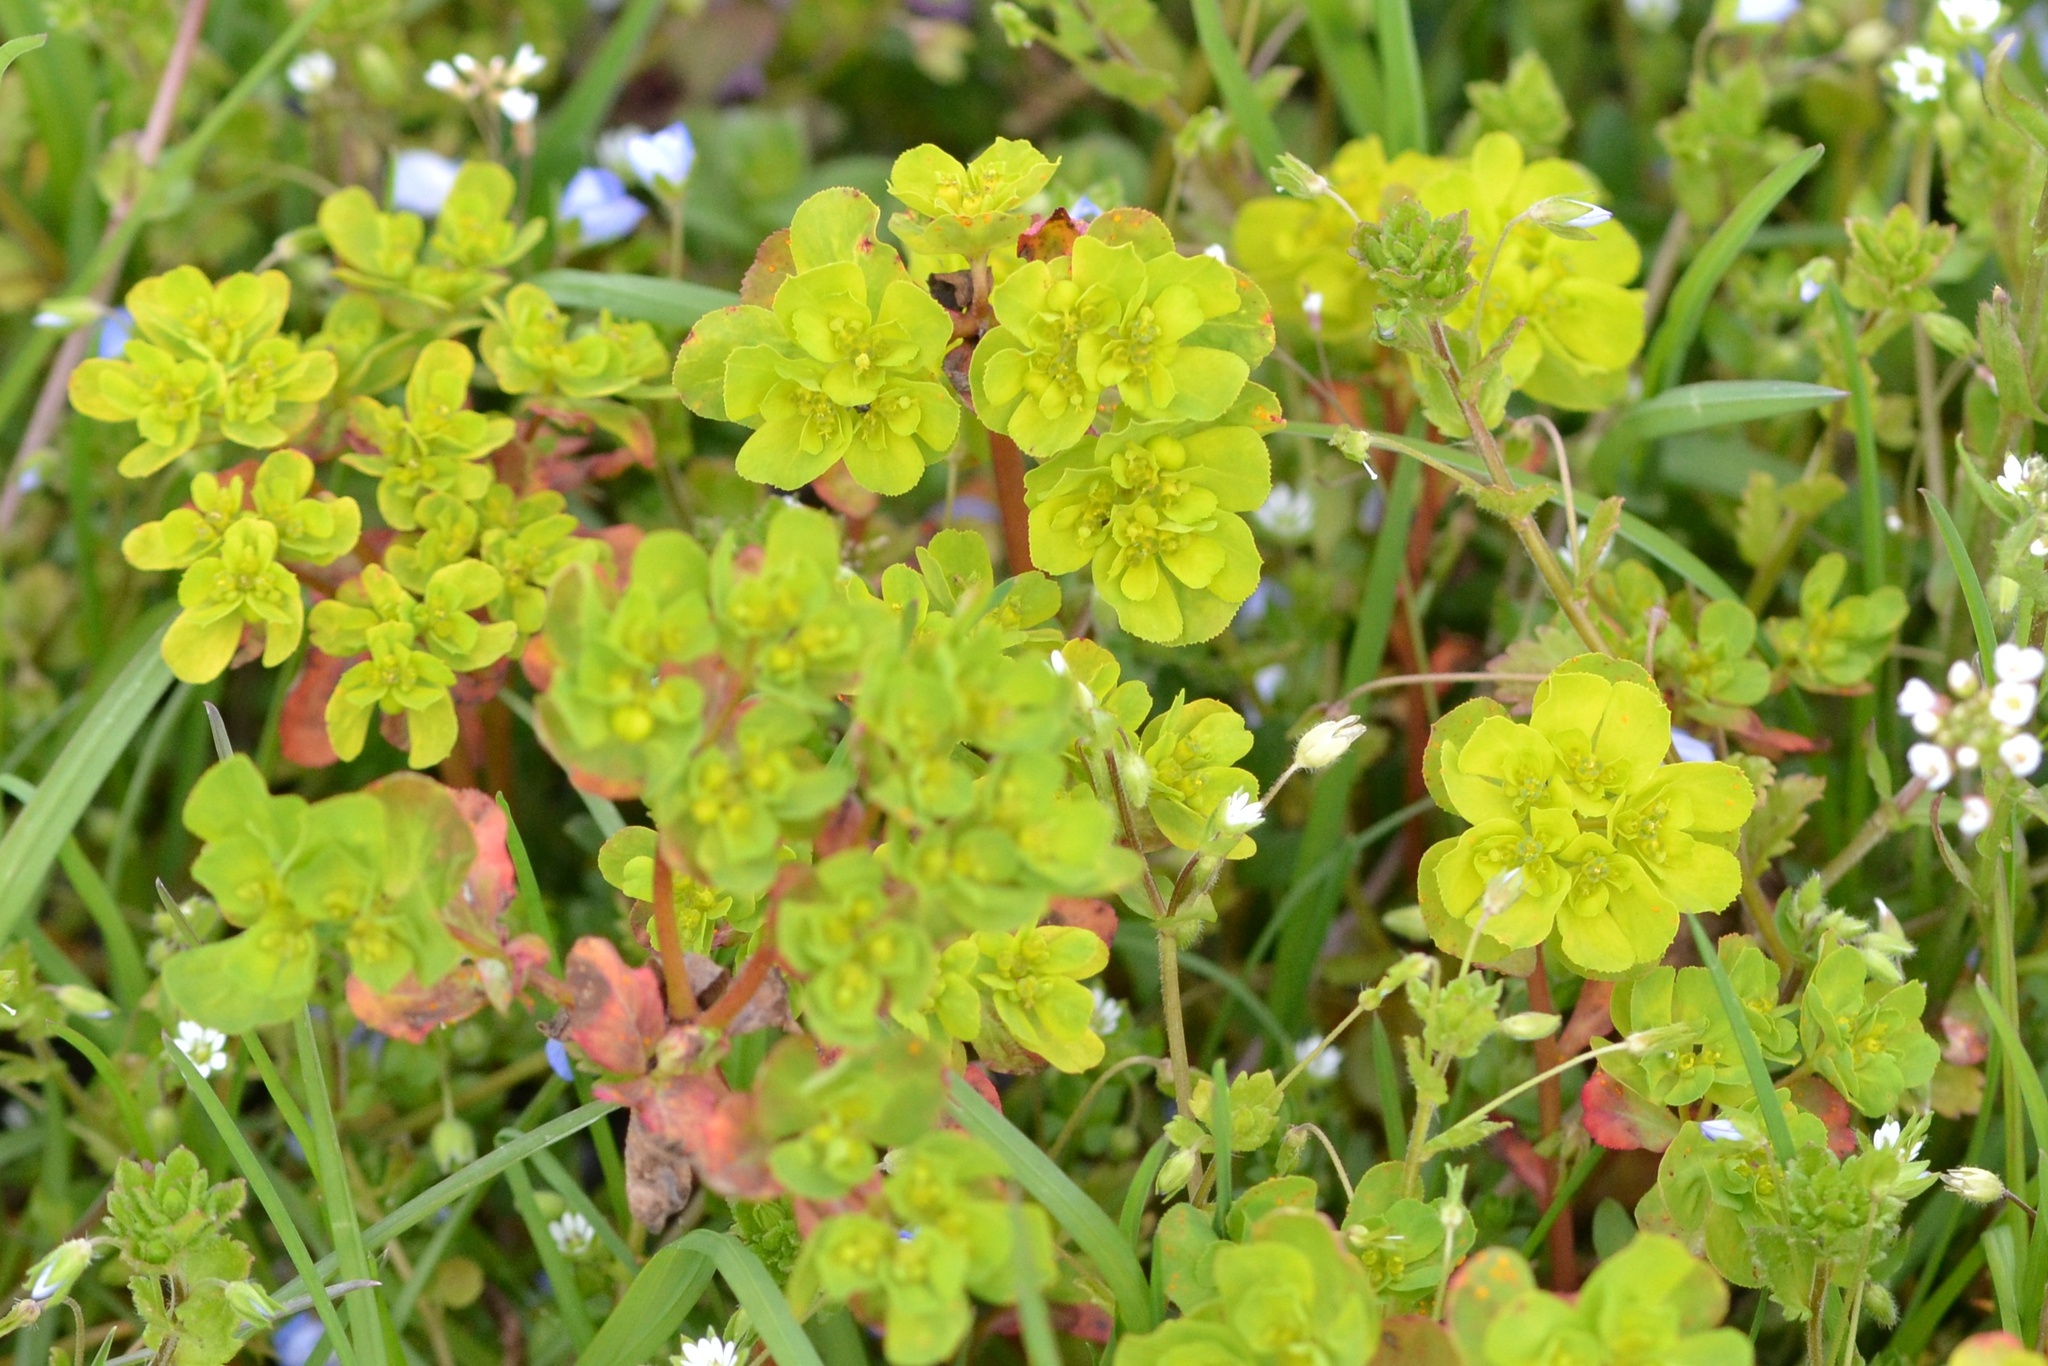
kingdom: Plantae
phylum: Tracheophyta
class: Magnoliopsida
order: Malpighiales
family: Euphorbiaceae
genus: Euphorbia
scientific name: Euphorbia helioscopia
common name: Sun spurge
